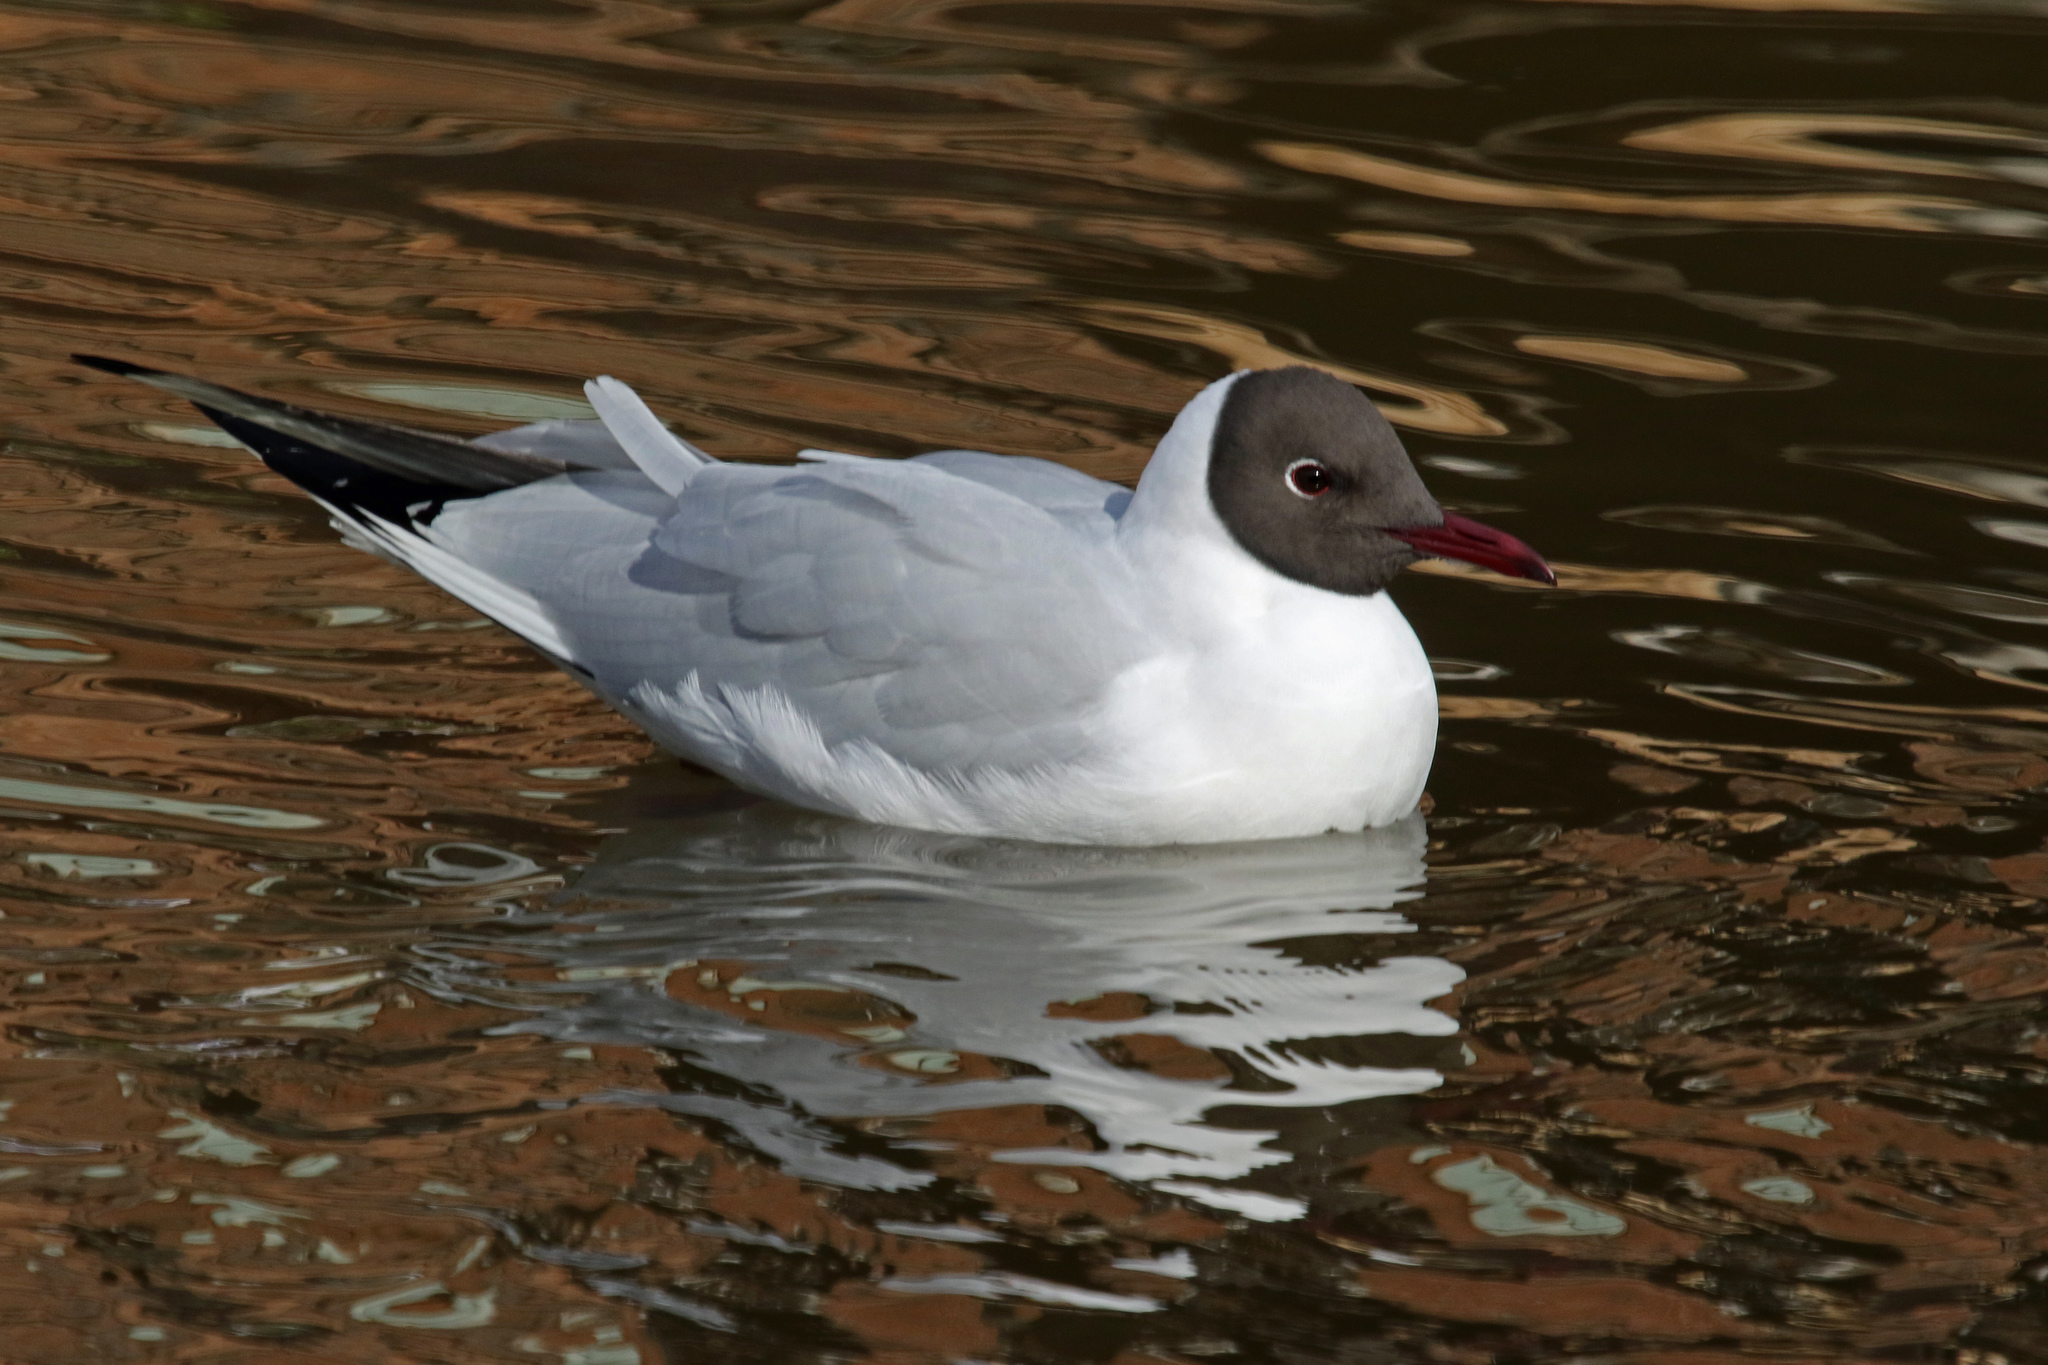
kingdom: Animalia
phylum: Chordata
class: Aves
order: Charadriiformes
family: Laridae
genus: Chroicocephalus
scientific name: Chroicocephalus ridibundus
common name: Black-headed gull
